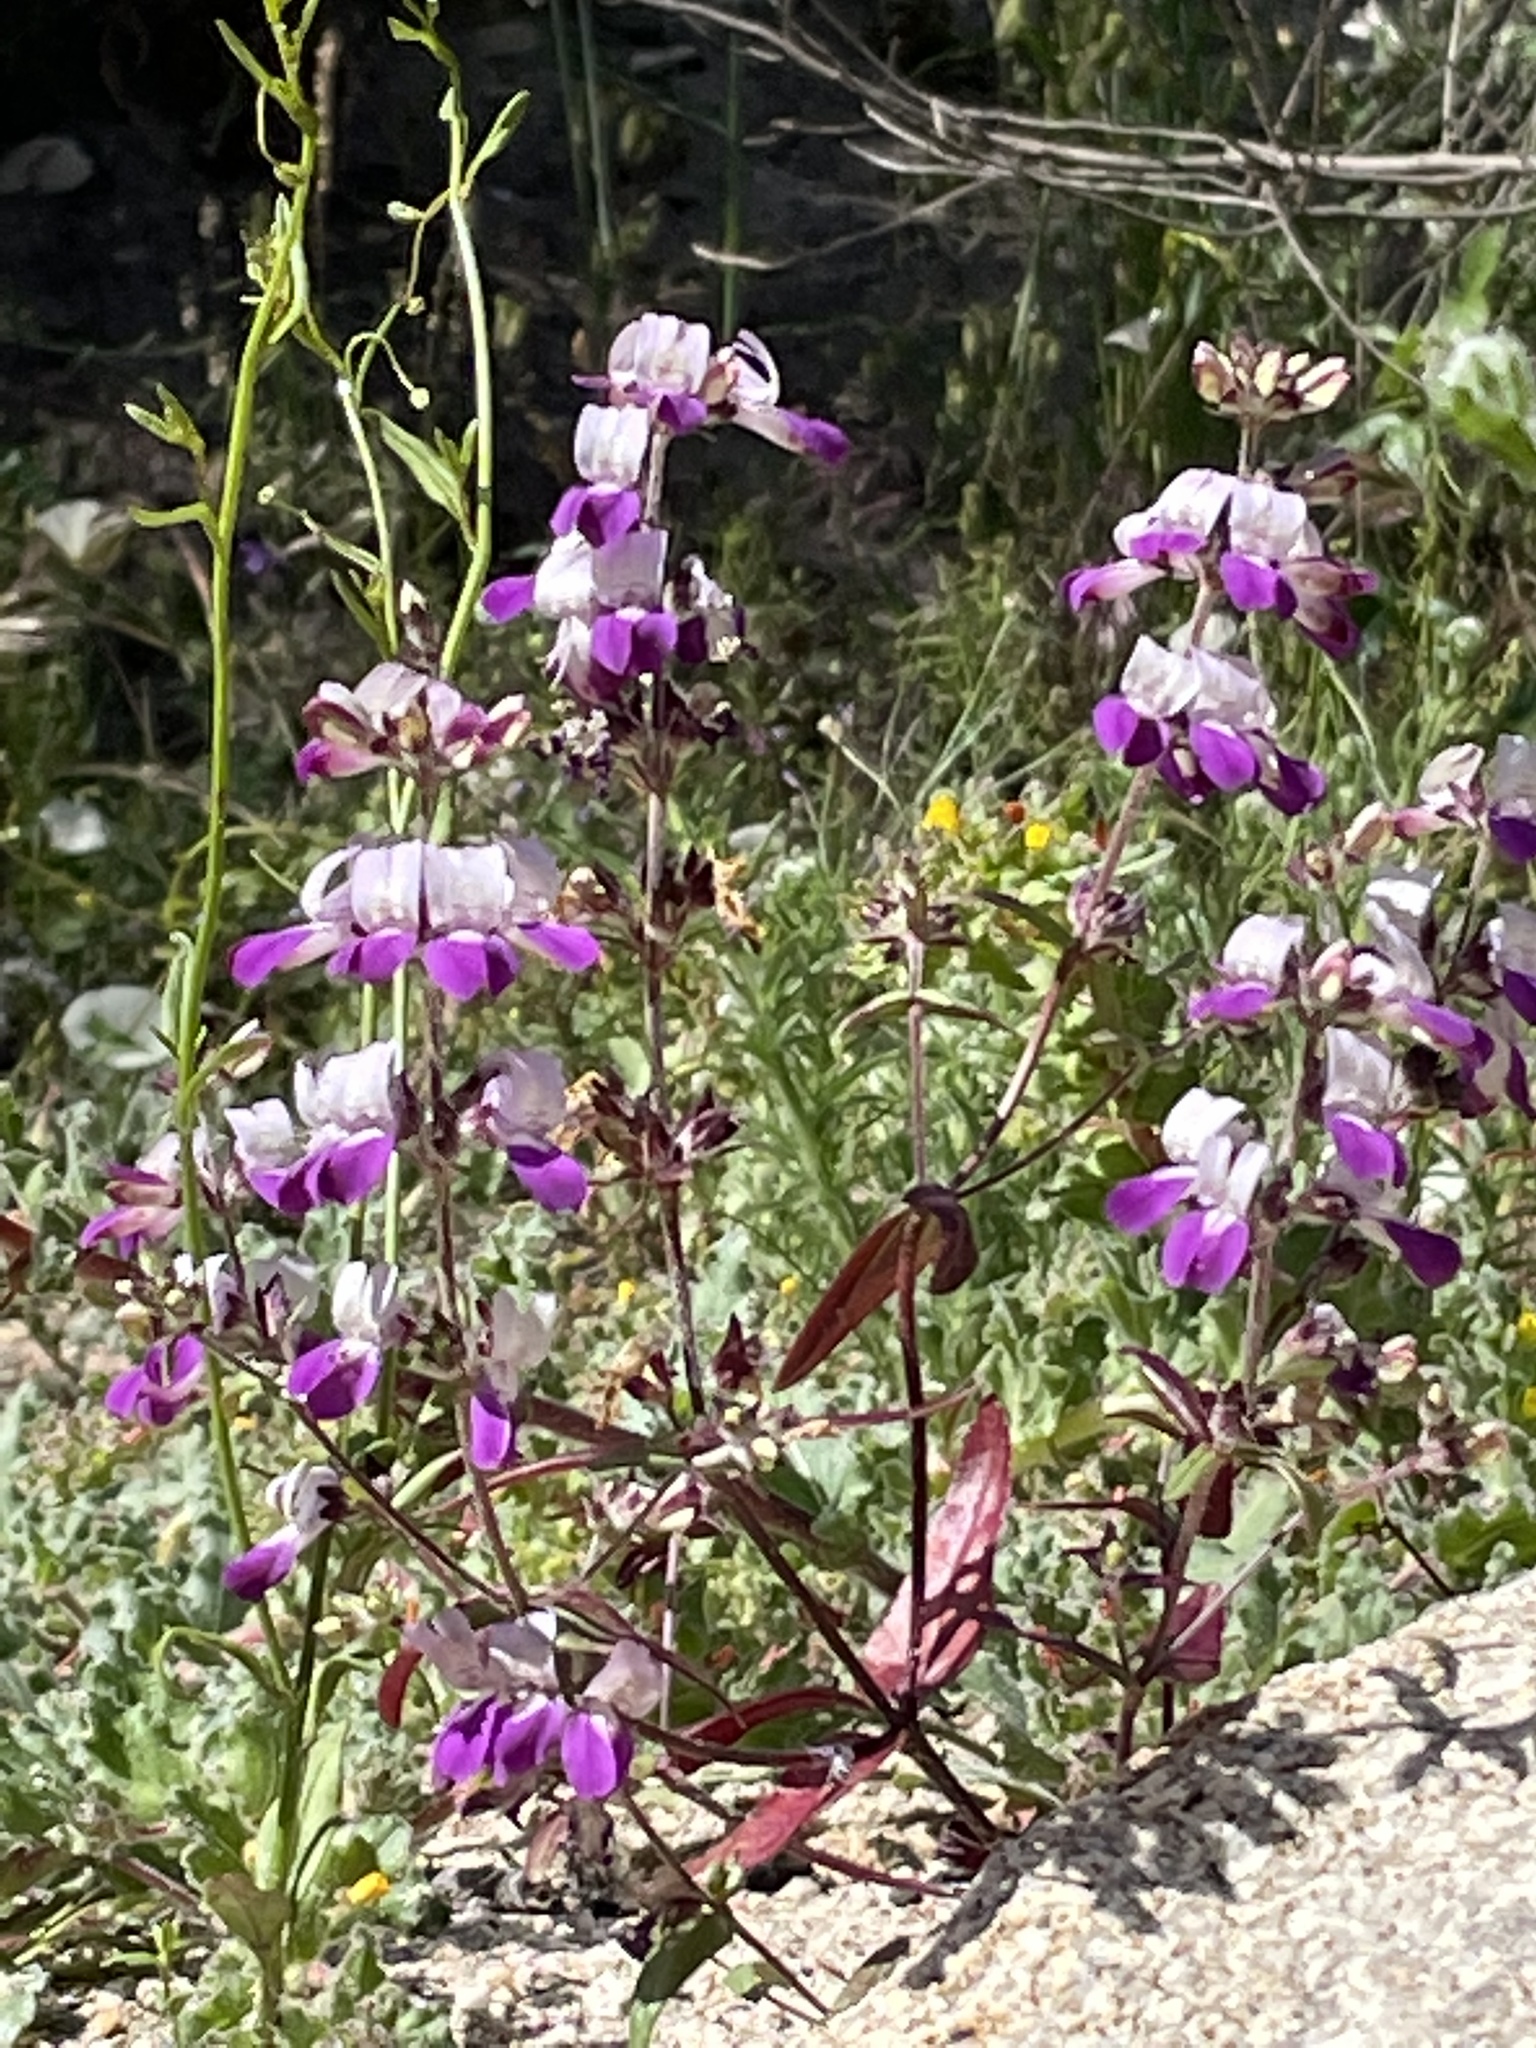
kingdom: Plantae
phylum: Tracheophyta
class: Magnoliopsida
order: Lamiales
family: Plantaginaceae
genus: Collinsia
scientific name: Collinsia heterophylla
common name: Chinese-houses
